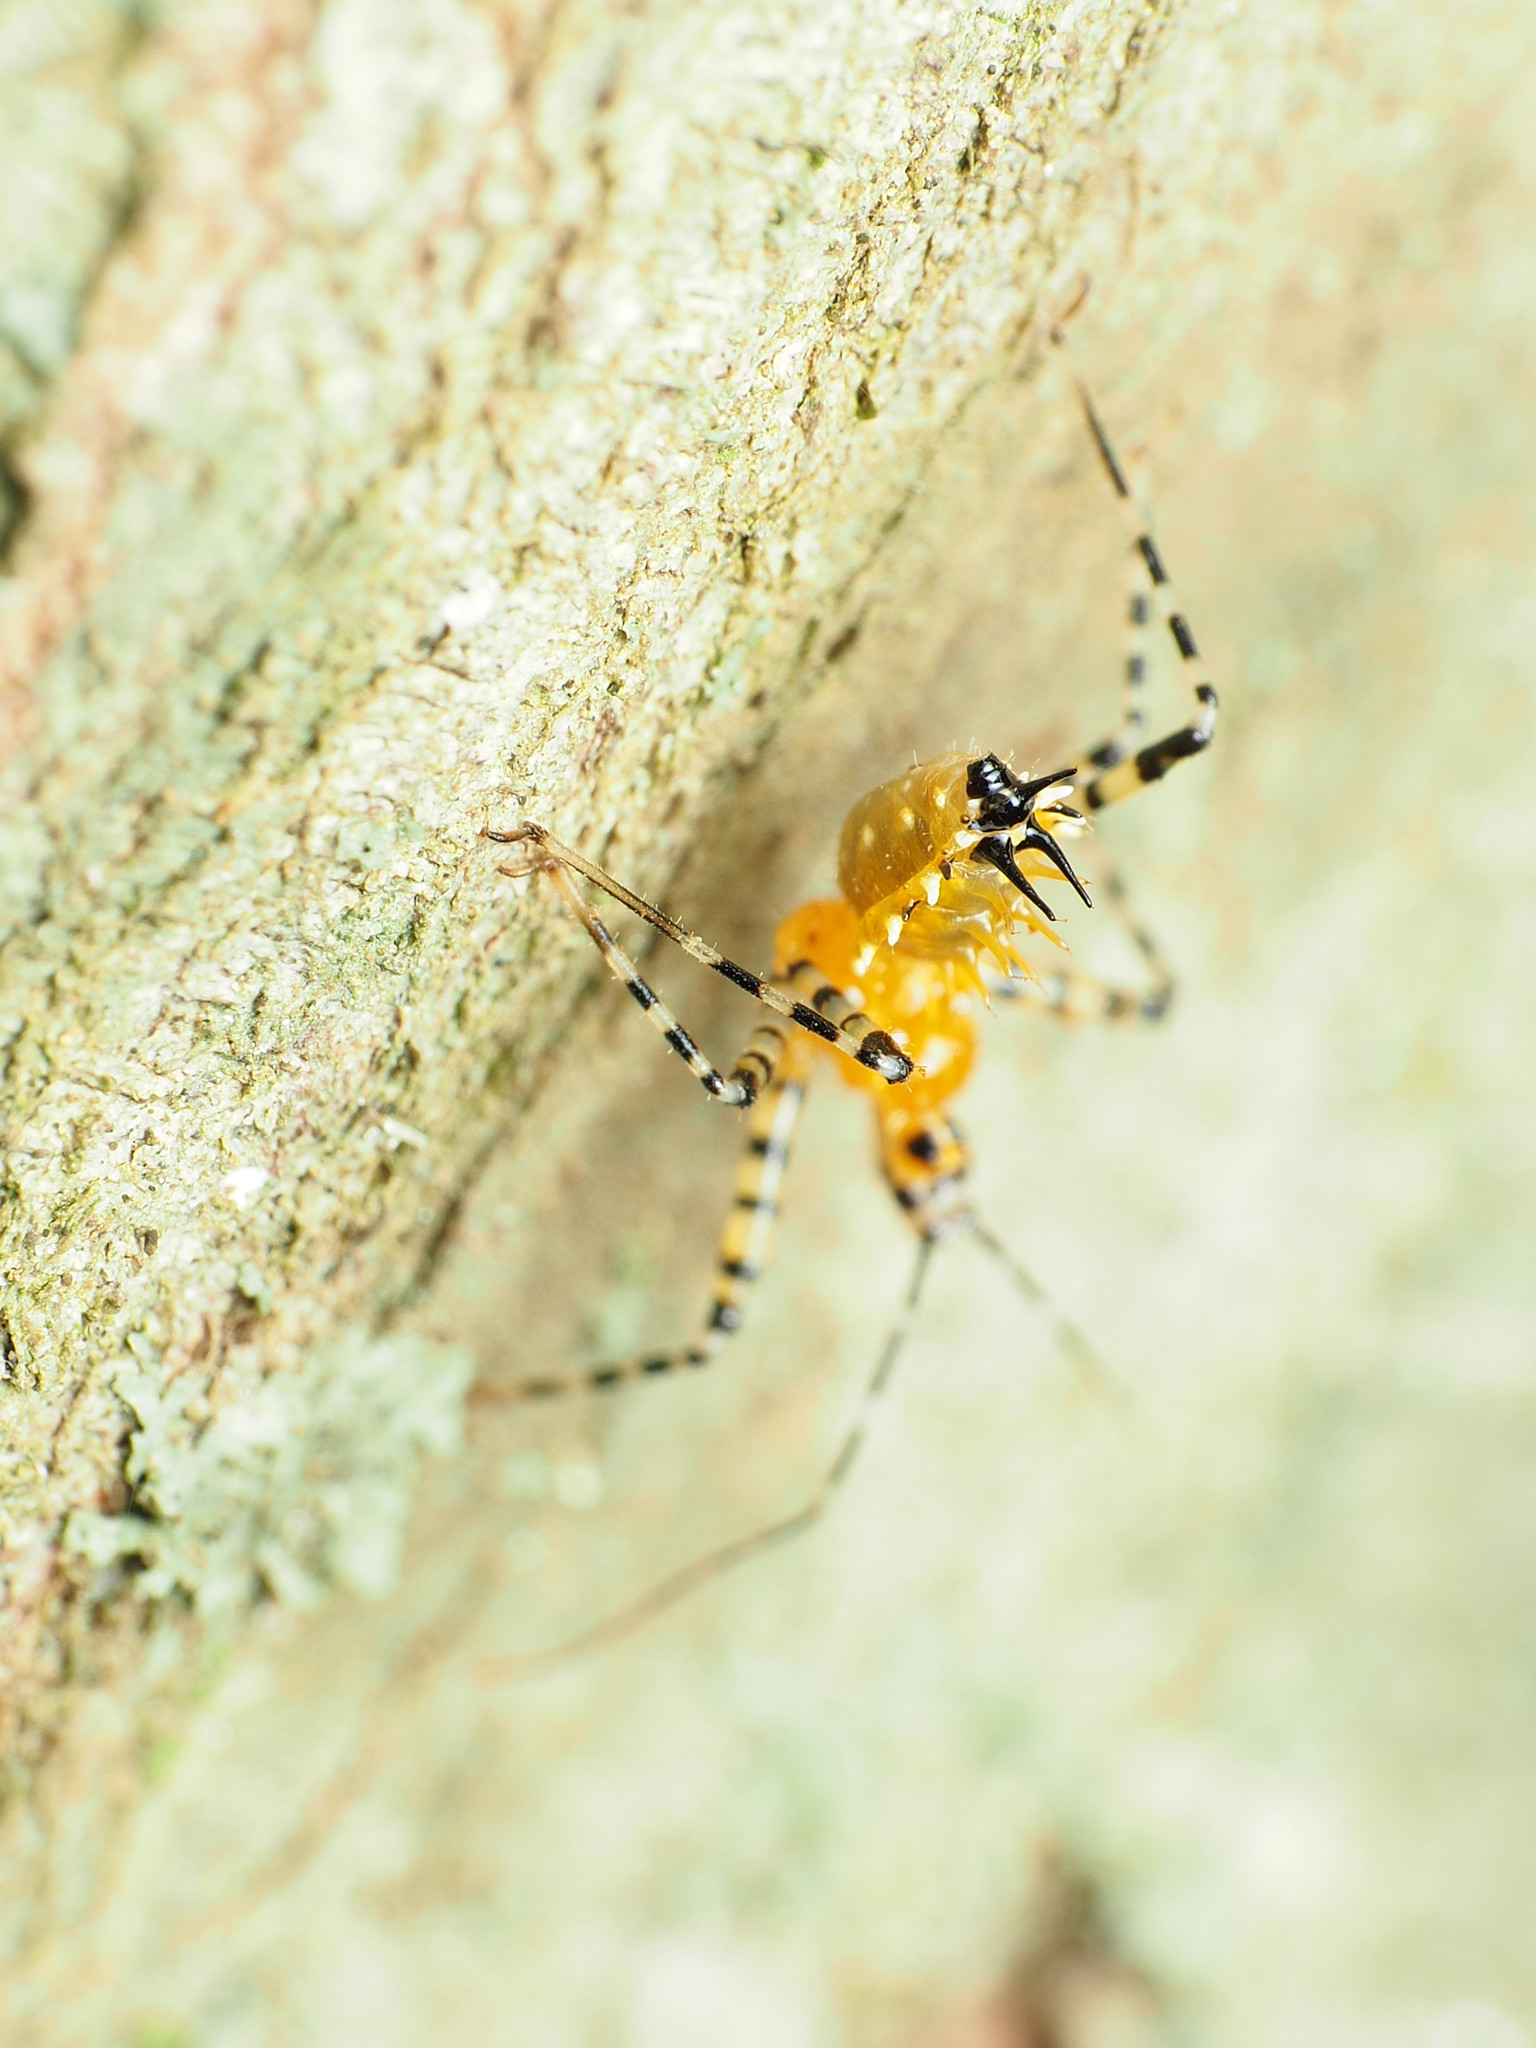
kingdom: Animalia
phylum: Arthropoda
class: Insecta
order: Hemiptera
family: Reduviidae
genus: Pselliopus
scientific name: Pselliopus barberi
